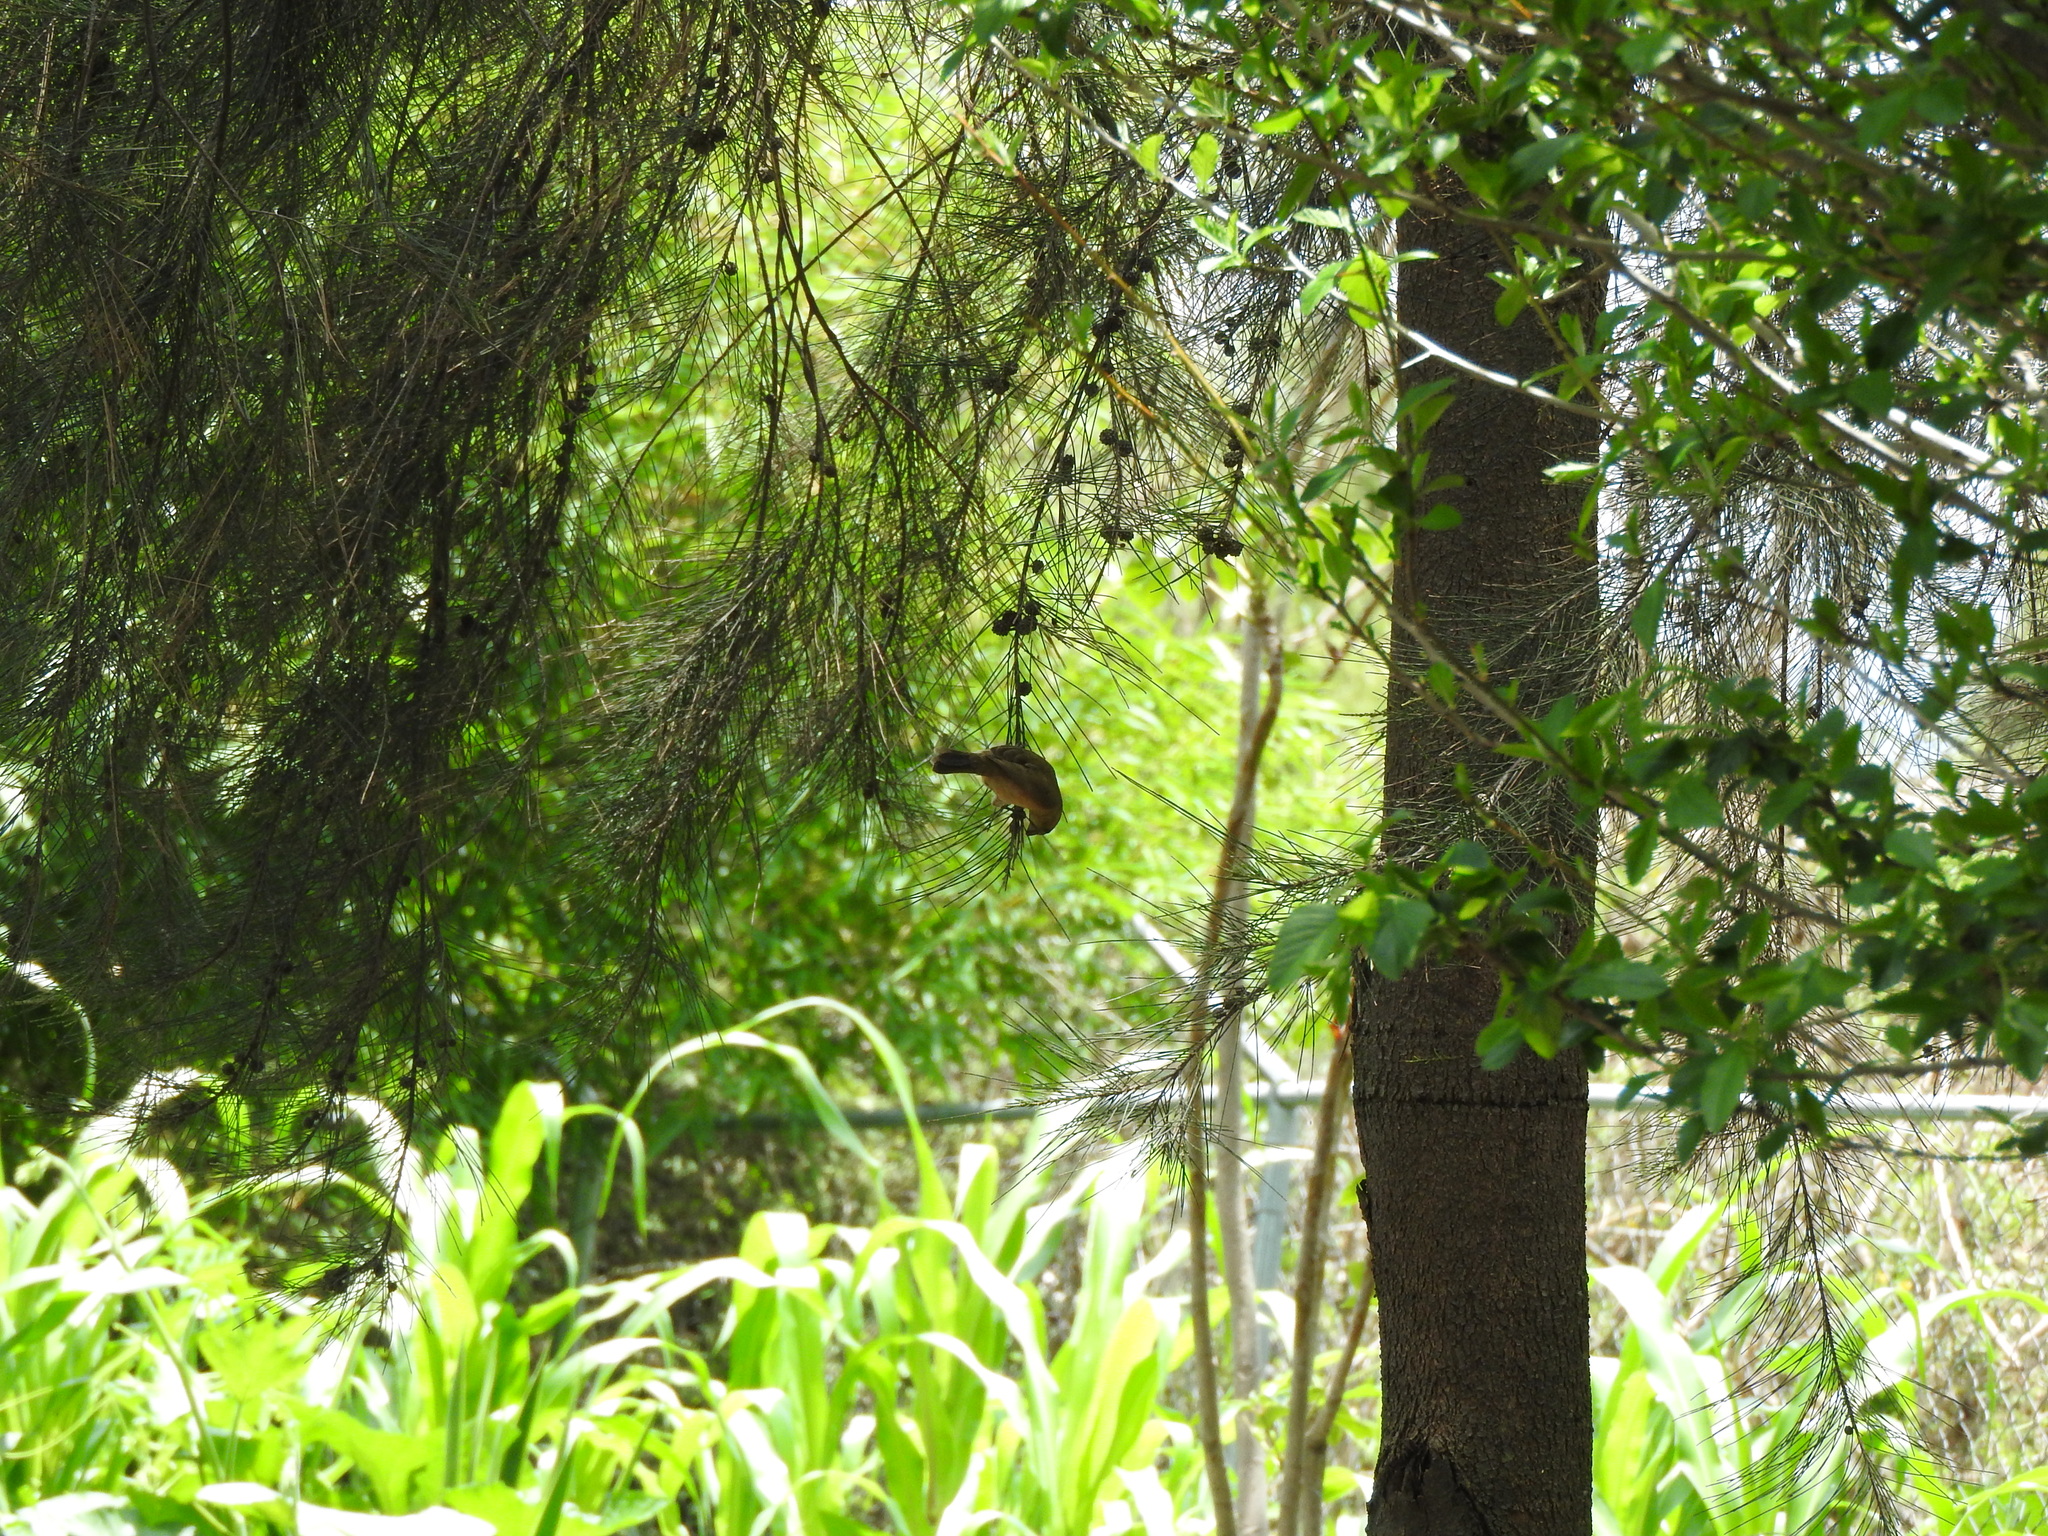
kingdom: Animalia
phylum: Chordata
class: Aves
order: Passeriformes
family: Thraupidae
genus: Sporophila
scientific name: Sporophila torqueola
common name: White-collared seedeater
